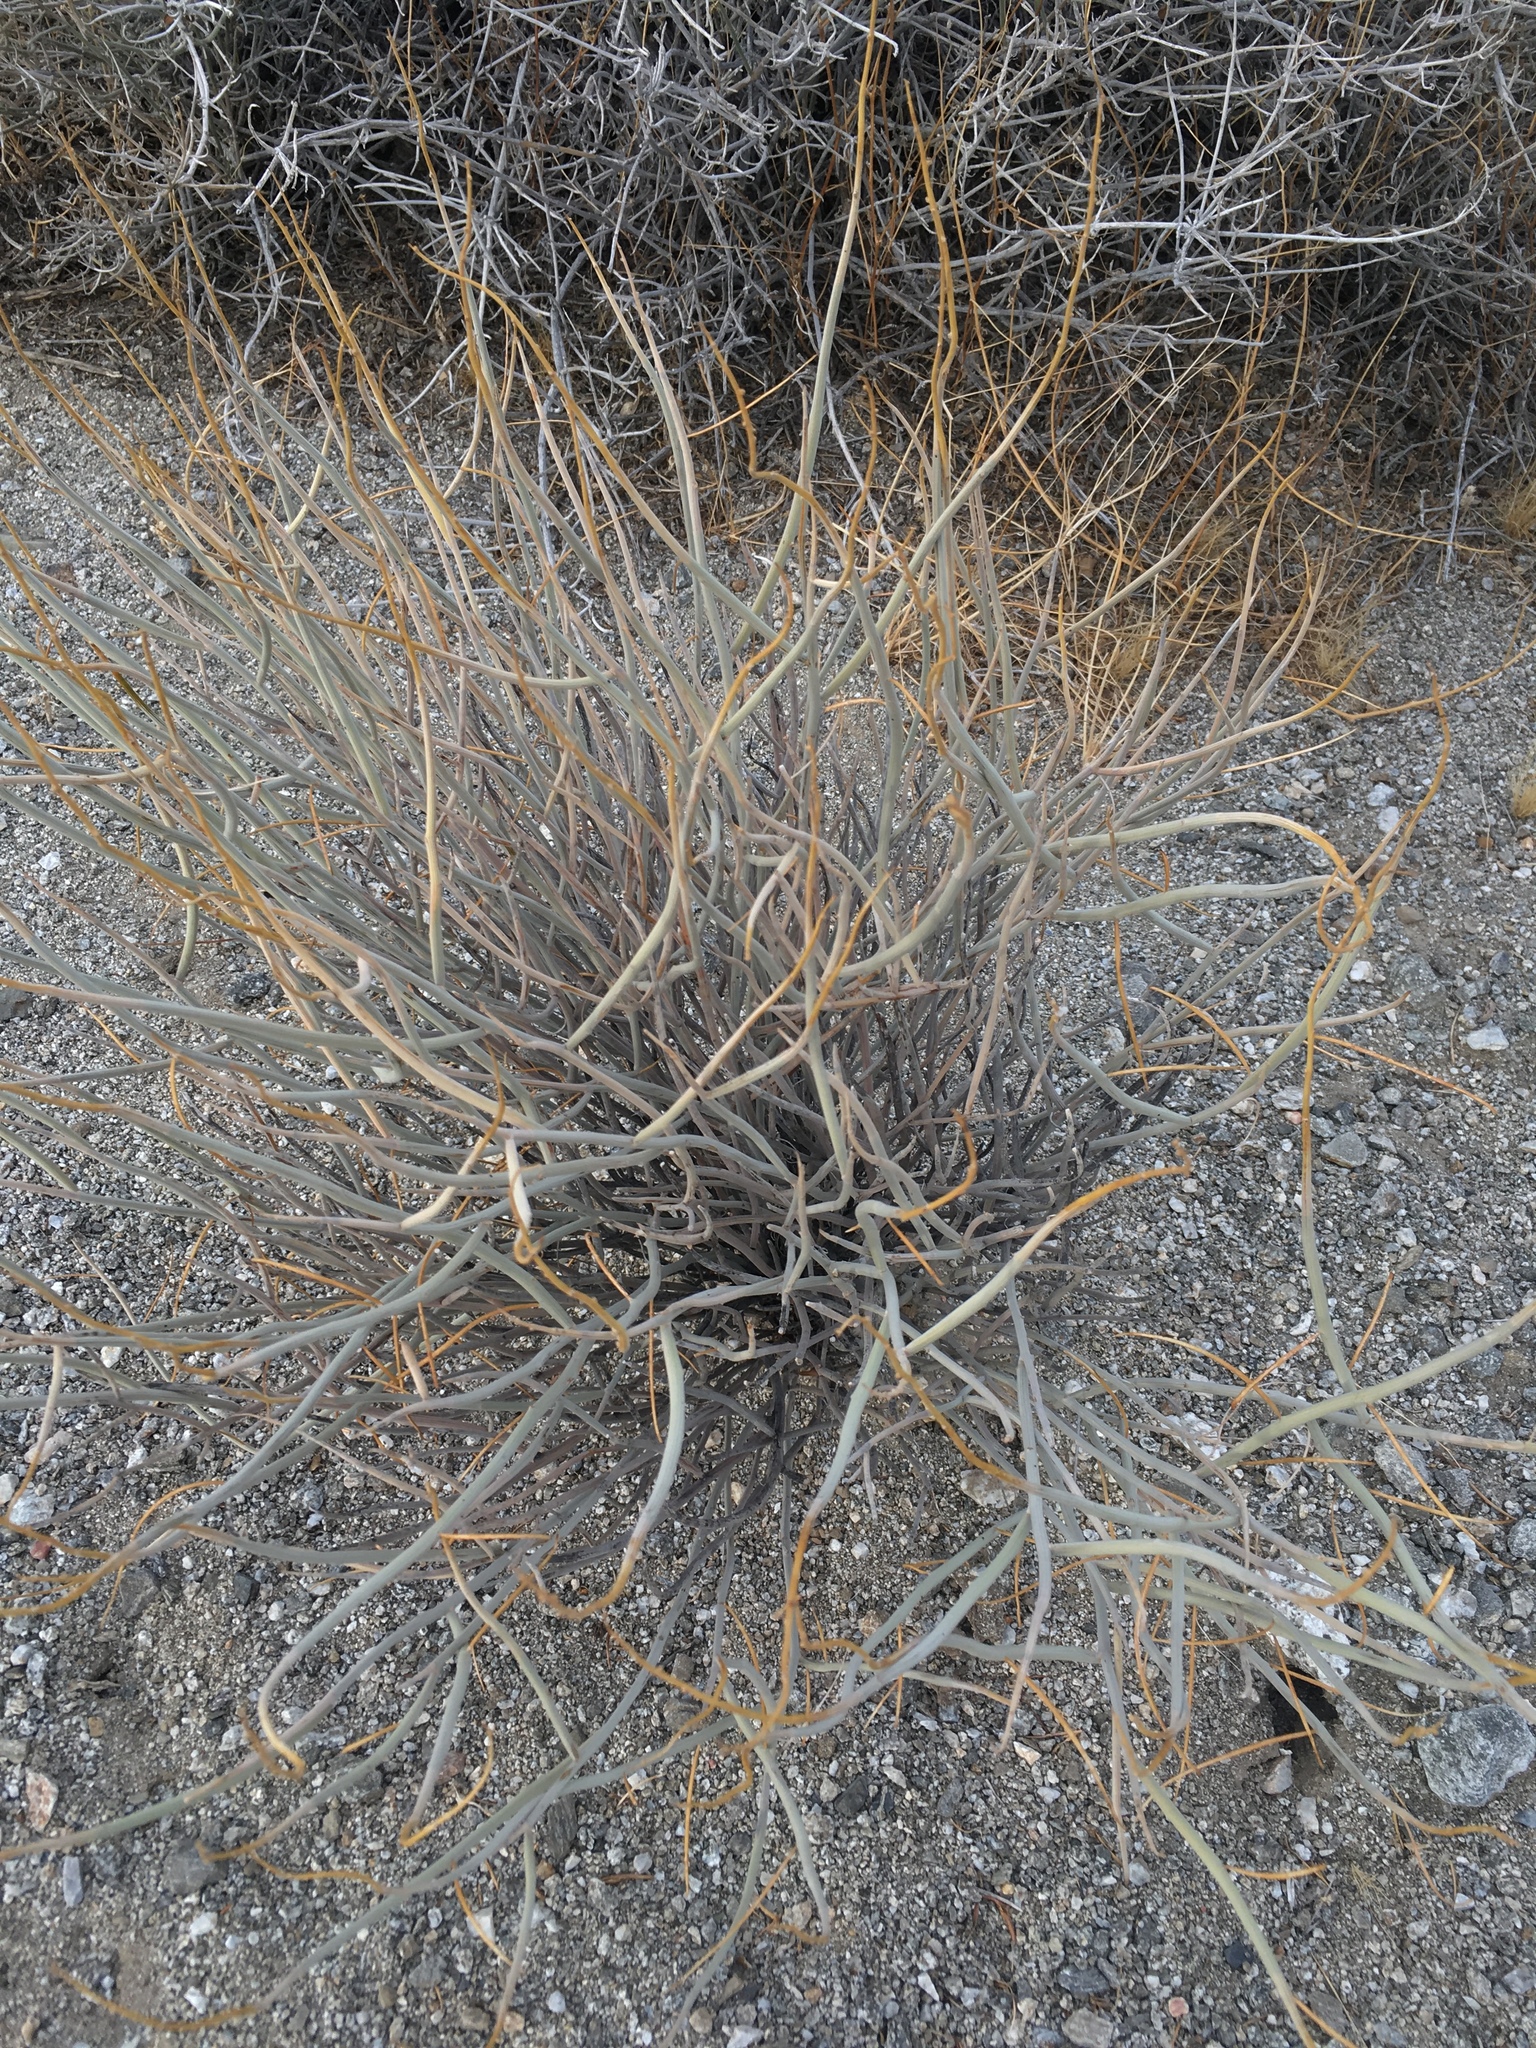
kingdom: Plantae
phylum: Tracheophyta
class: Magnoliopsida
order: Fabales
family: Fabaceae
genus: Senna
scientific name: Senna armata
